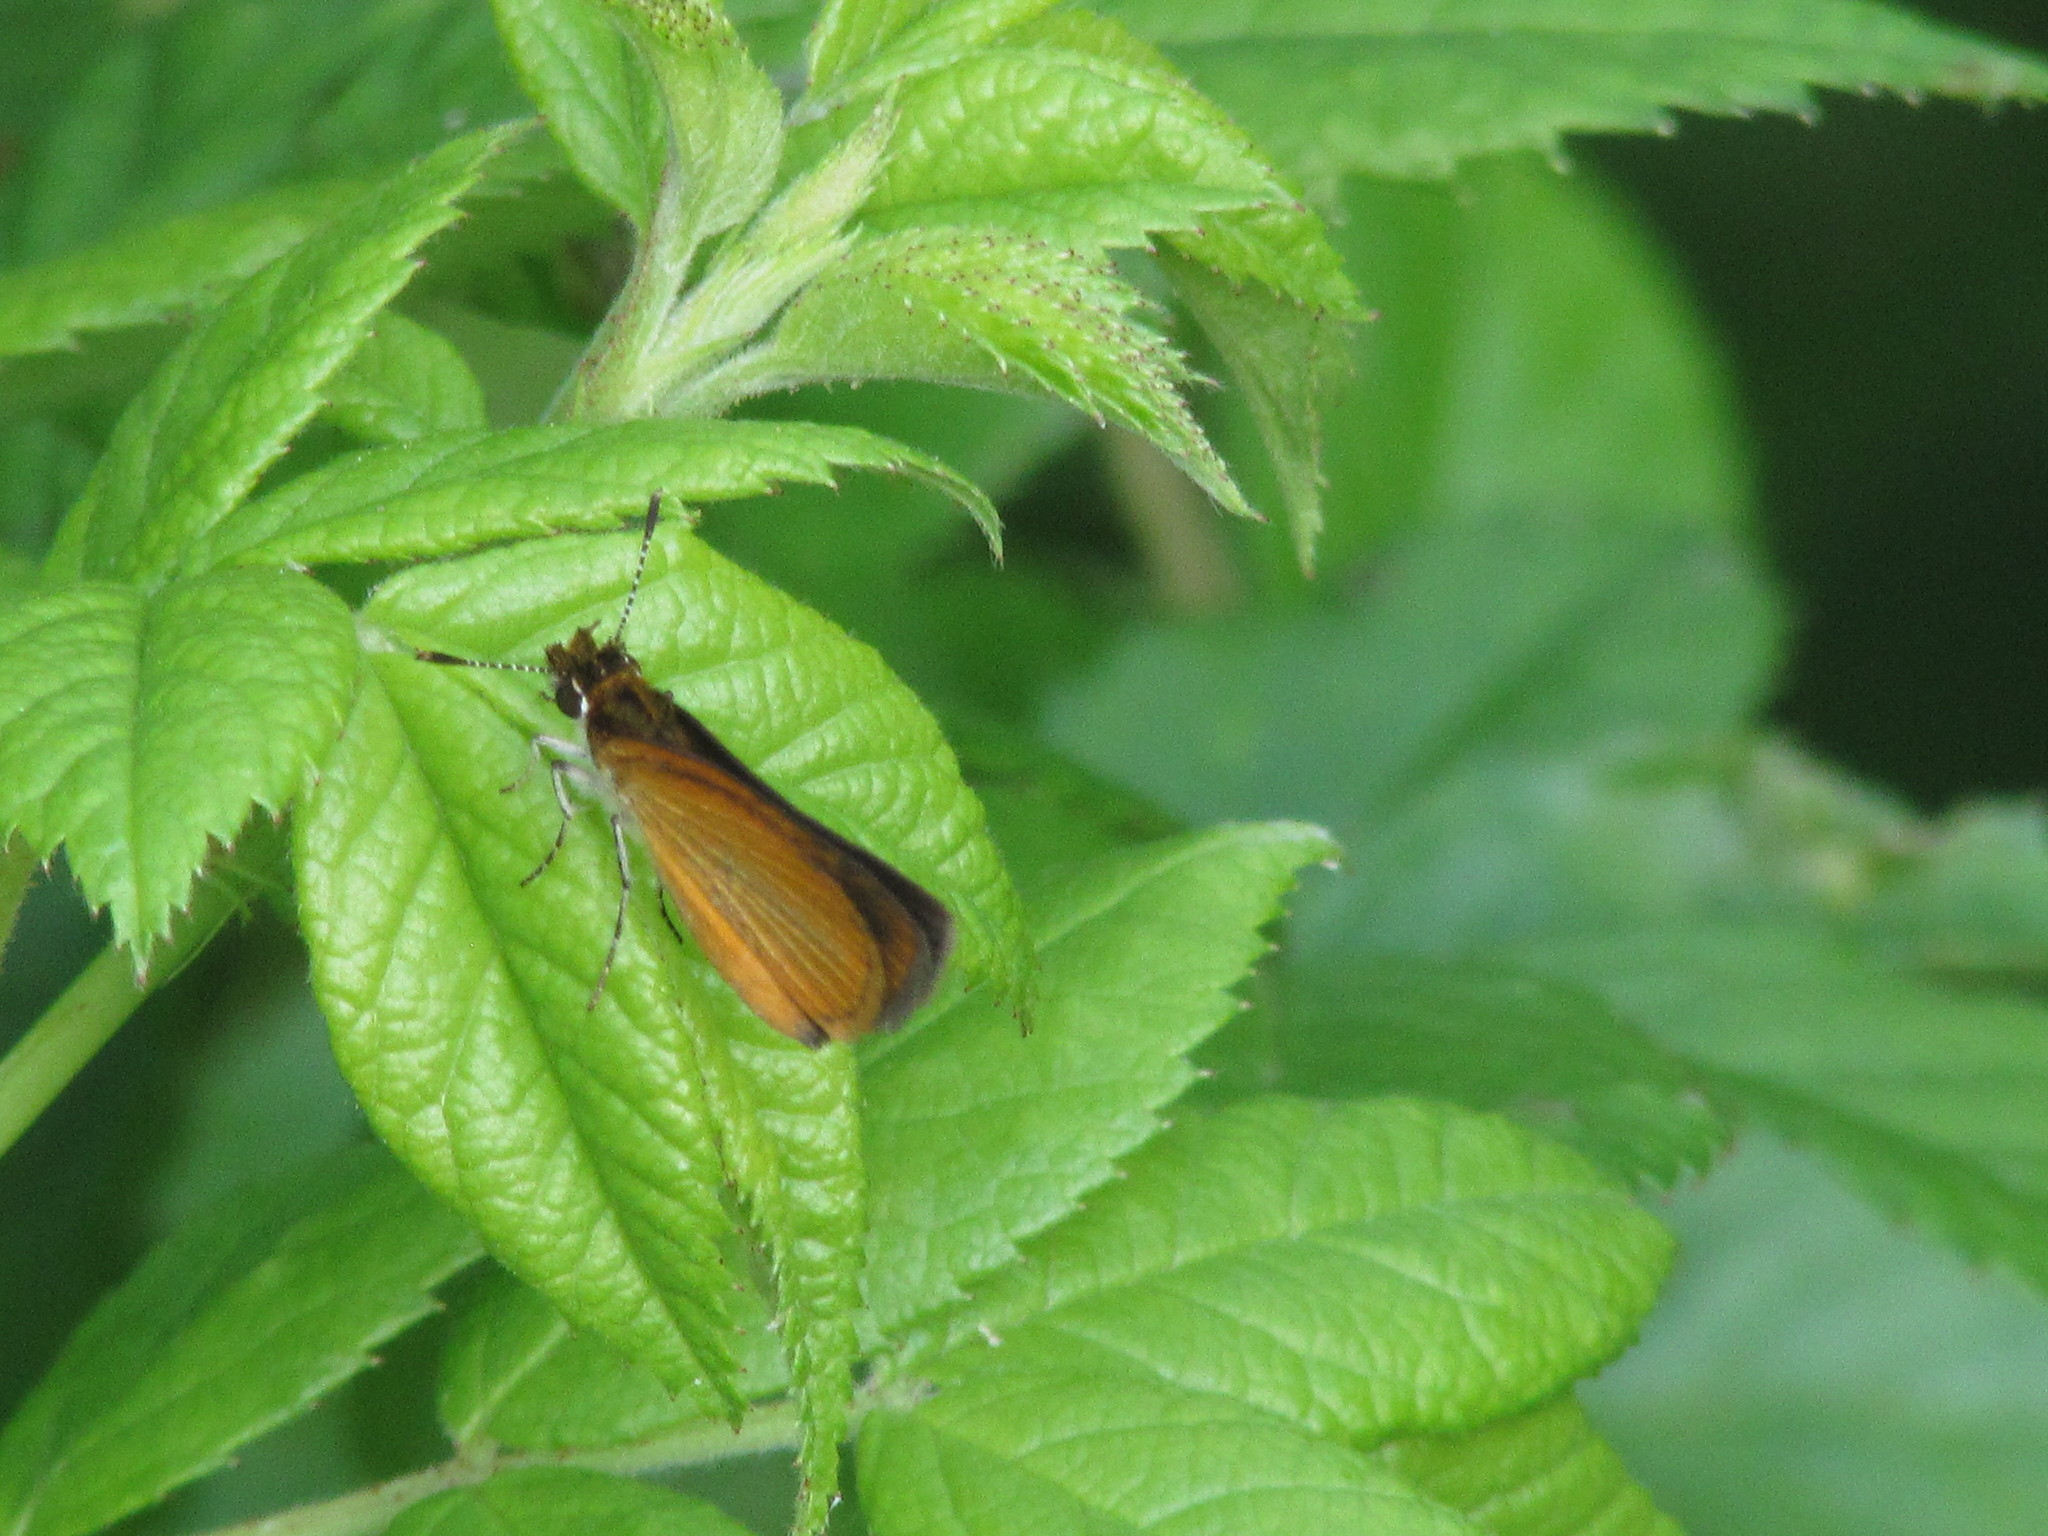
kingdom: Animalia
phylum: Arthropoda
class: Insecta
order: Lepidoptera
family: Hesperiidae
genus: Ancyloxypha
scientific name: Ancyloxypha numitor
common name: Least skipper
